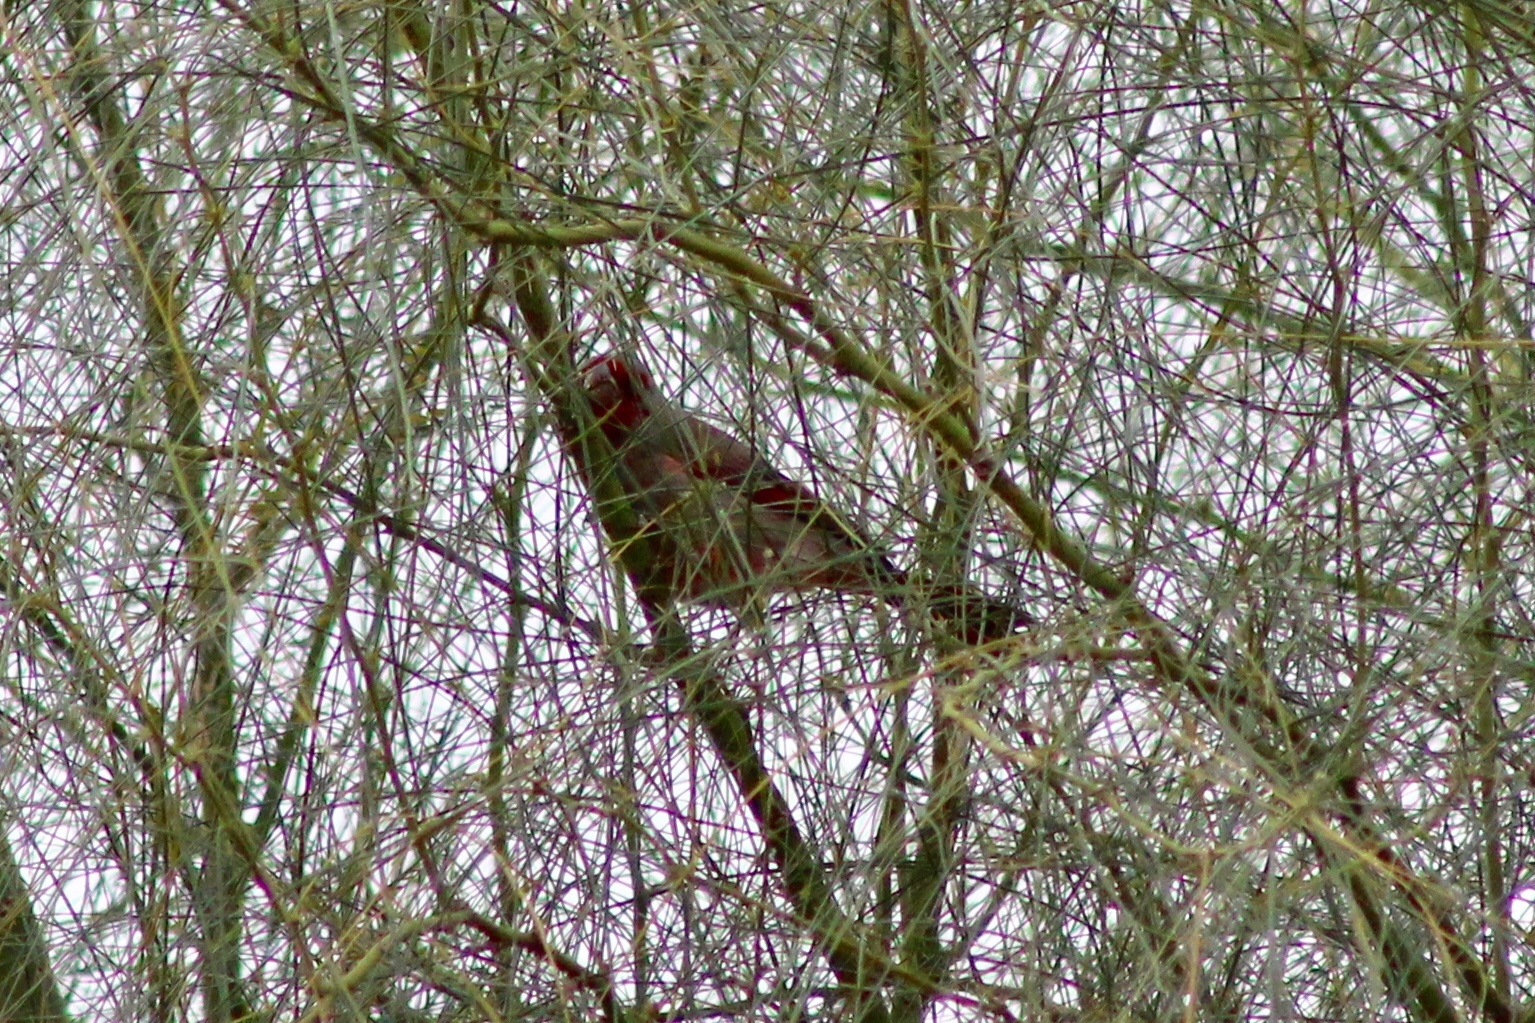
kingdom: Animalia
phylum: Chordata
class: Aves
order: Passeriformes
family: Cardinalidae
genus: Cardinalis
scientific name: Cardinalis sinuatus
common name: Pyrrhuloxia
